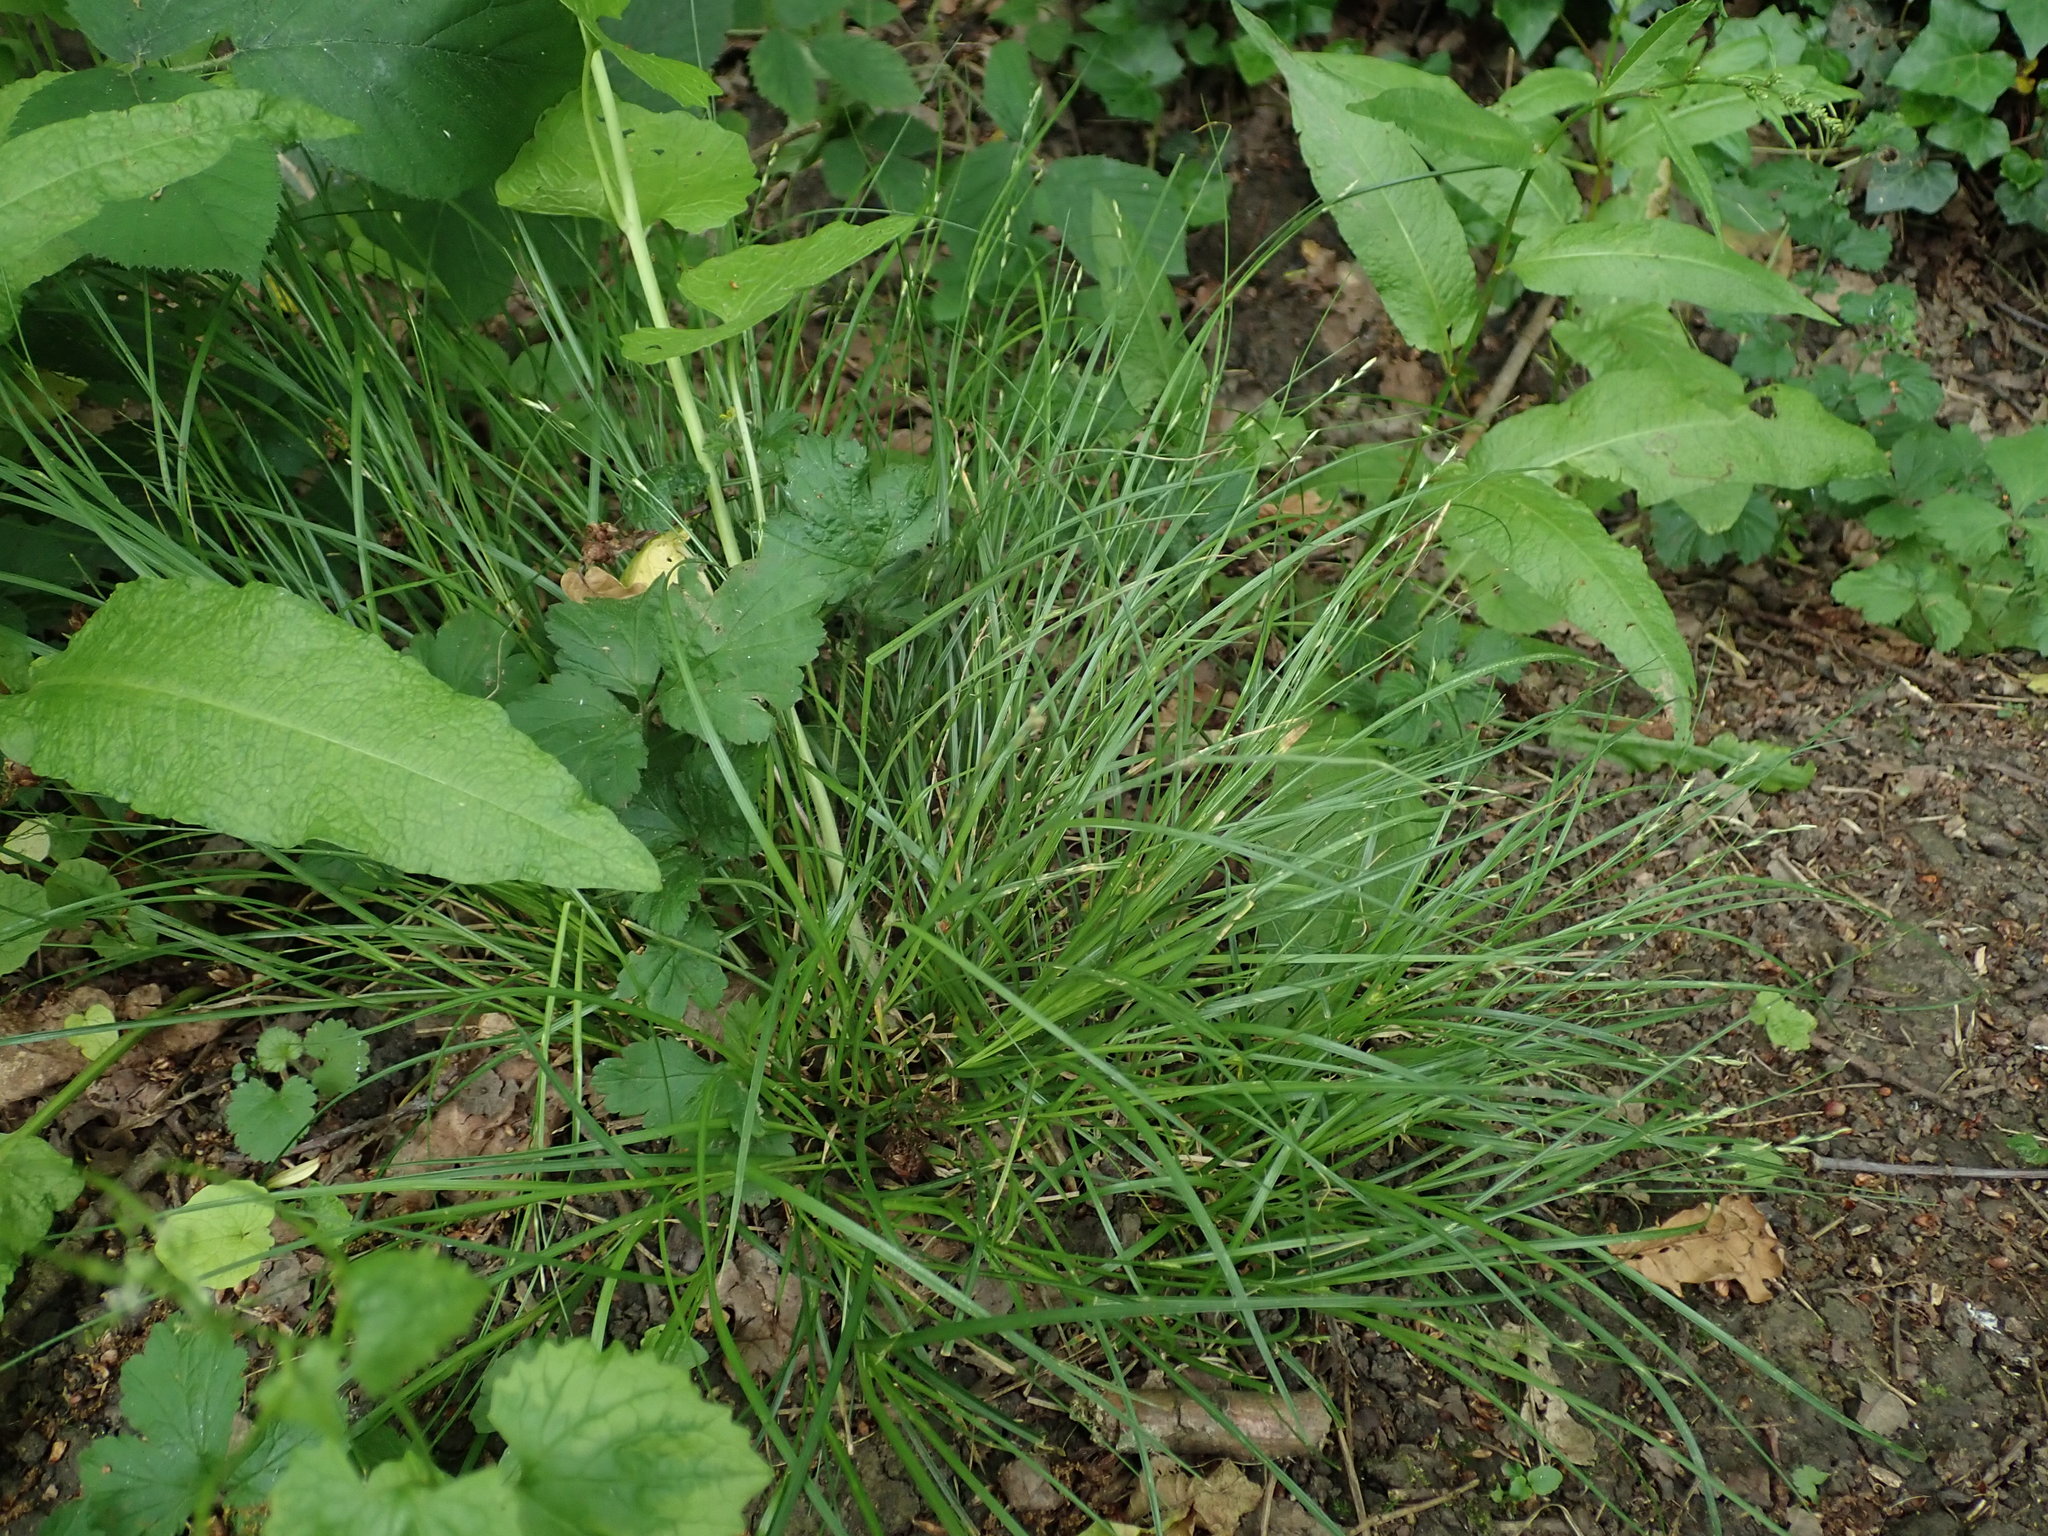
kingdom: Plantae
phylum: Tracheophyta
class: Liliopsida
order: Poales
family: Cyperaceae
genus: Carex
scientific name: Carex remota
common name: Remote sedge
